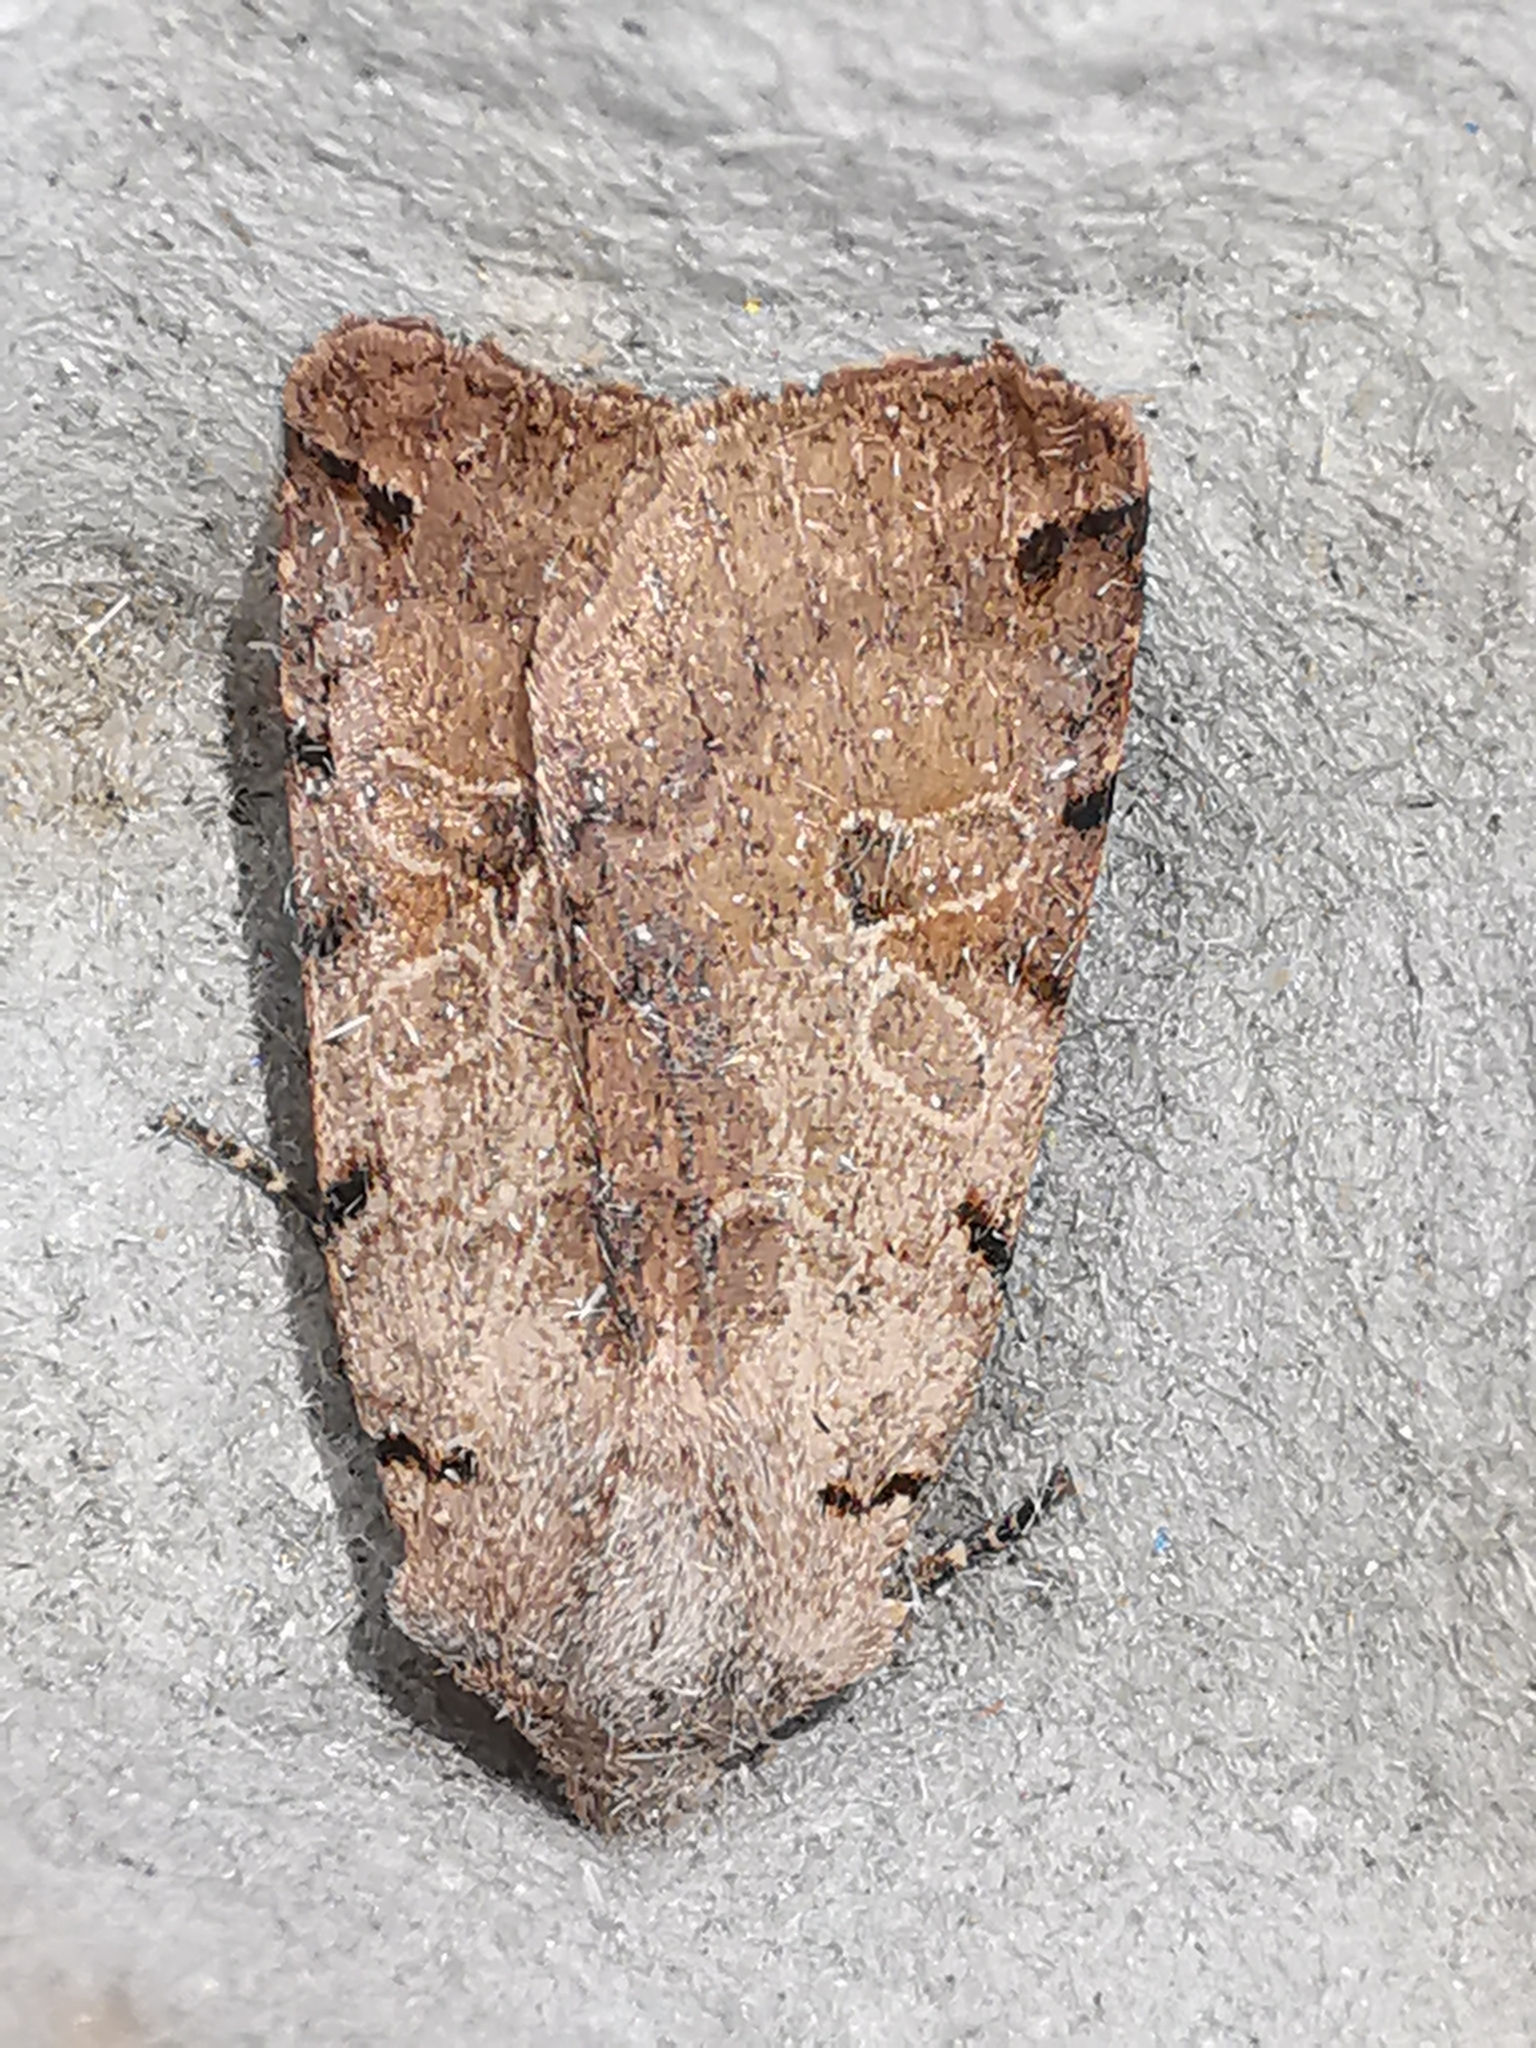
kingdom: Animalia
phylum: Arthropoda
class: Insecta
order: Lepidoptera
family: Noctuidae
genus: Agrochola
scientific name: Agrochola litura
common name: Brown-spot pinion
